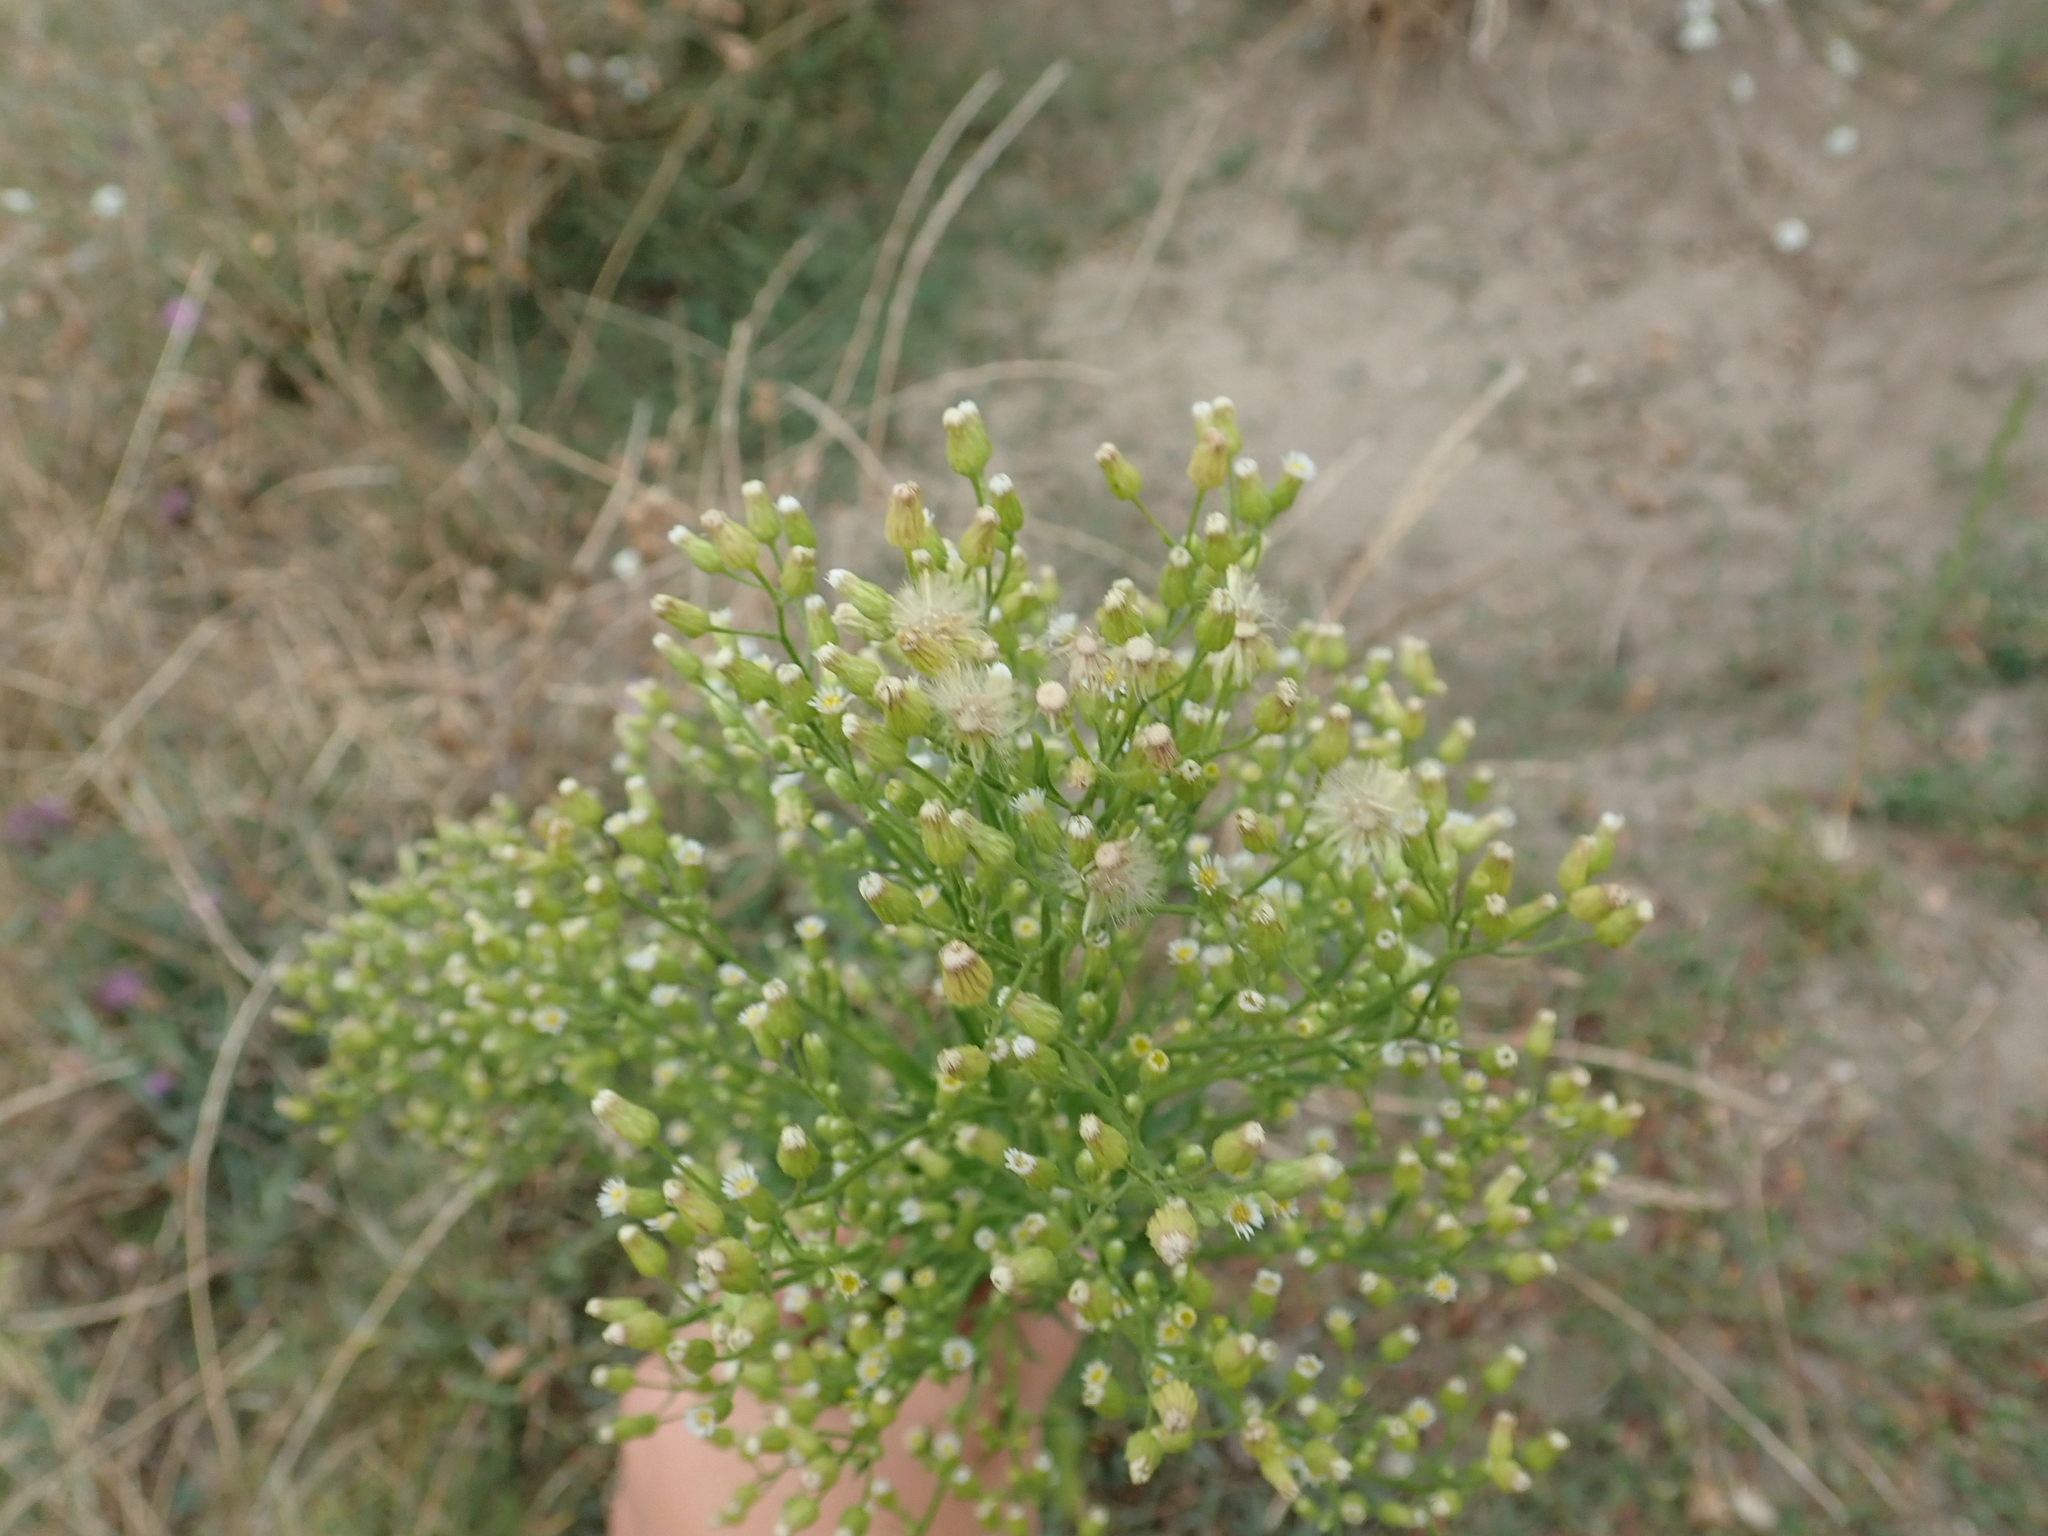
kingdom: Plantae
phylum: Tracheophyta
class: Magnoliopsida
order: Asterales
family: Asteraceae
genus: Erigeron
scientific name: Erigeron canadensis
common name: Canadian fleabane
